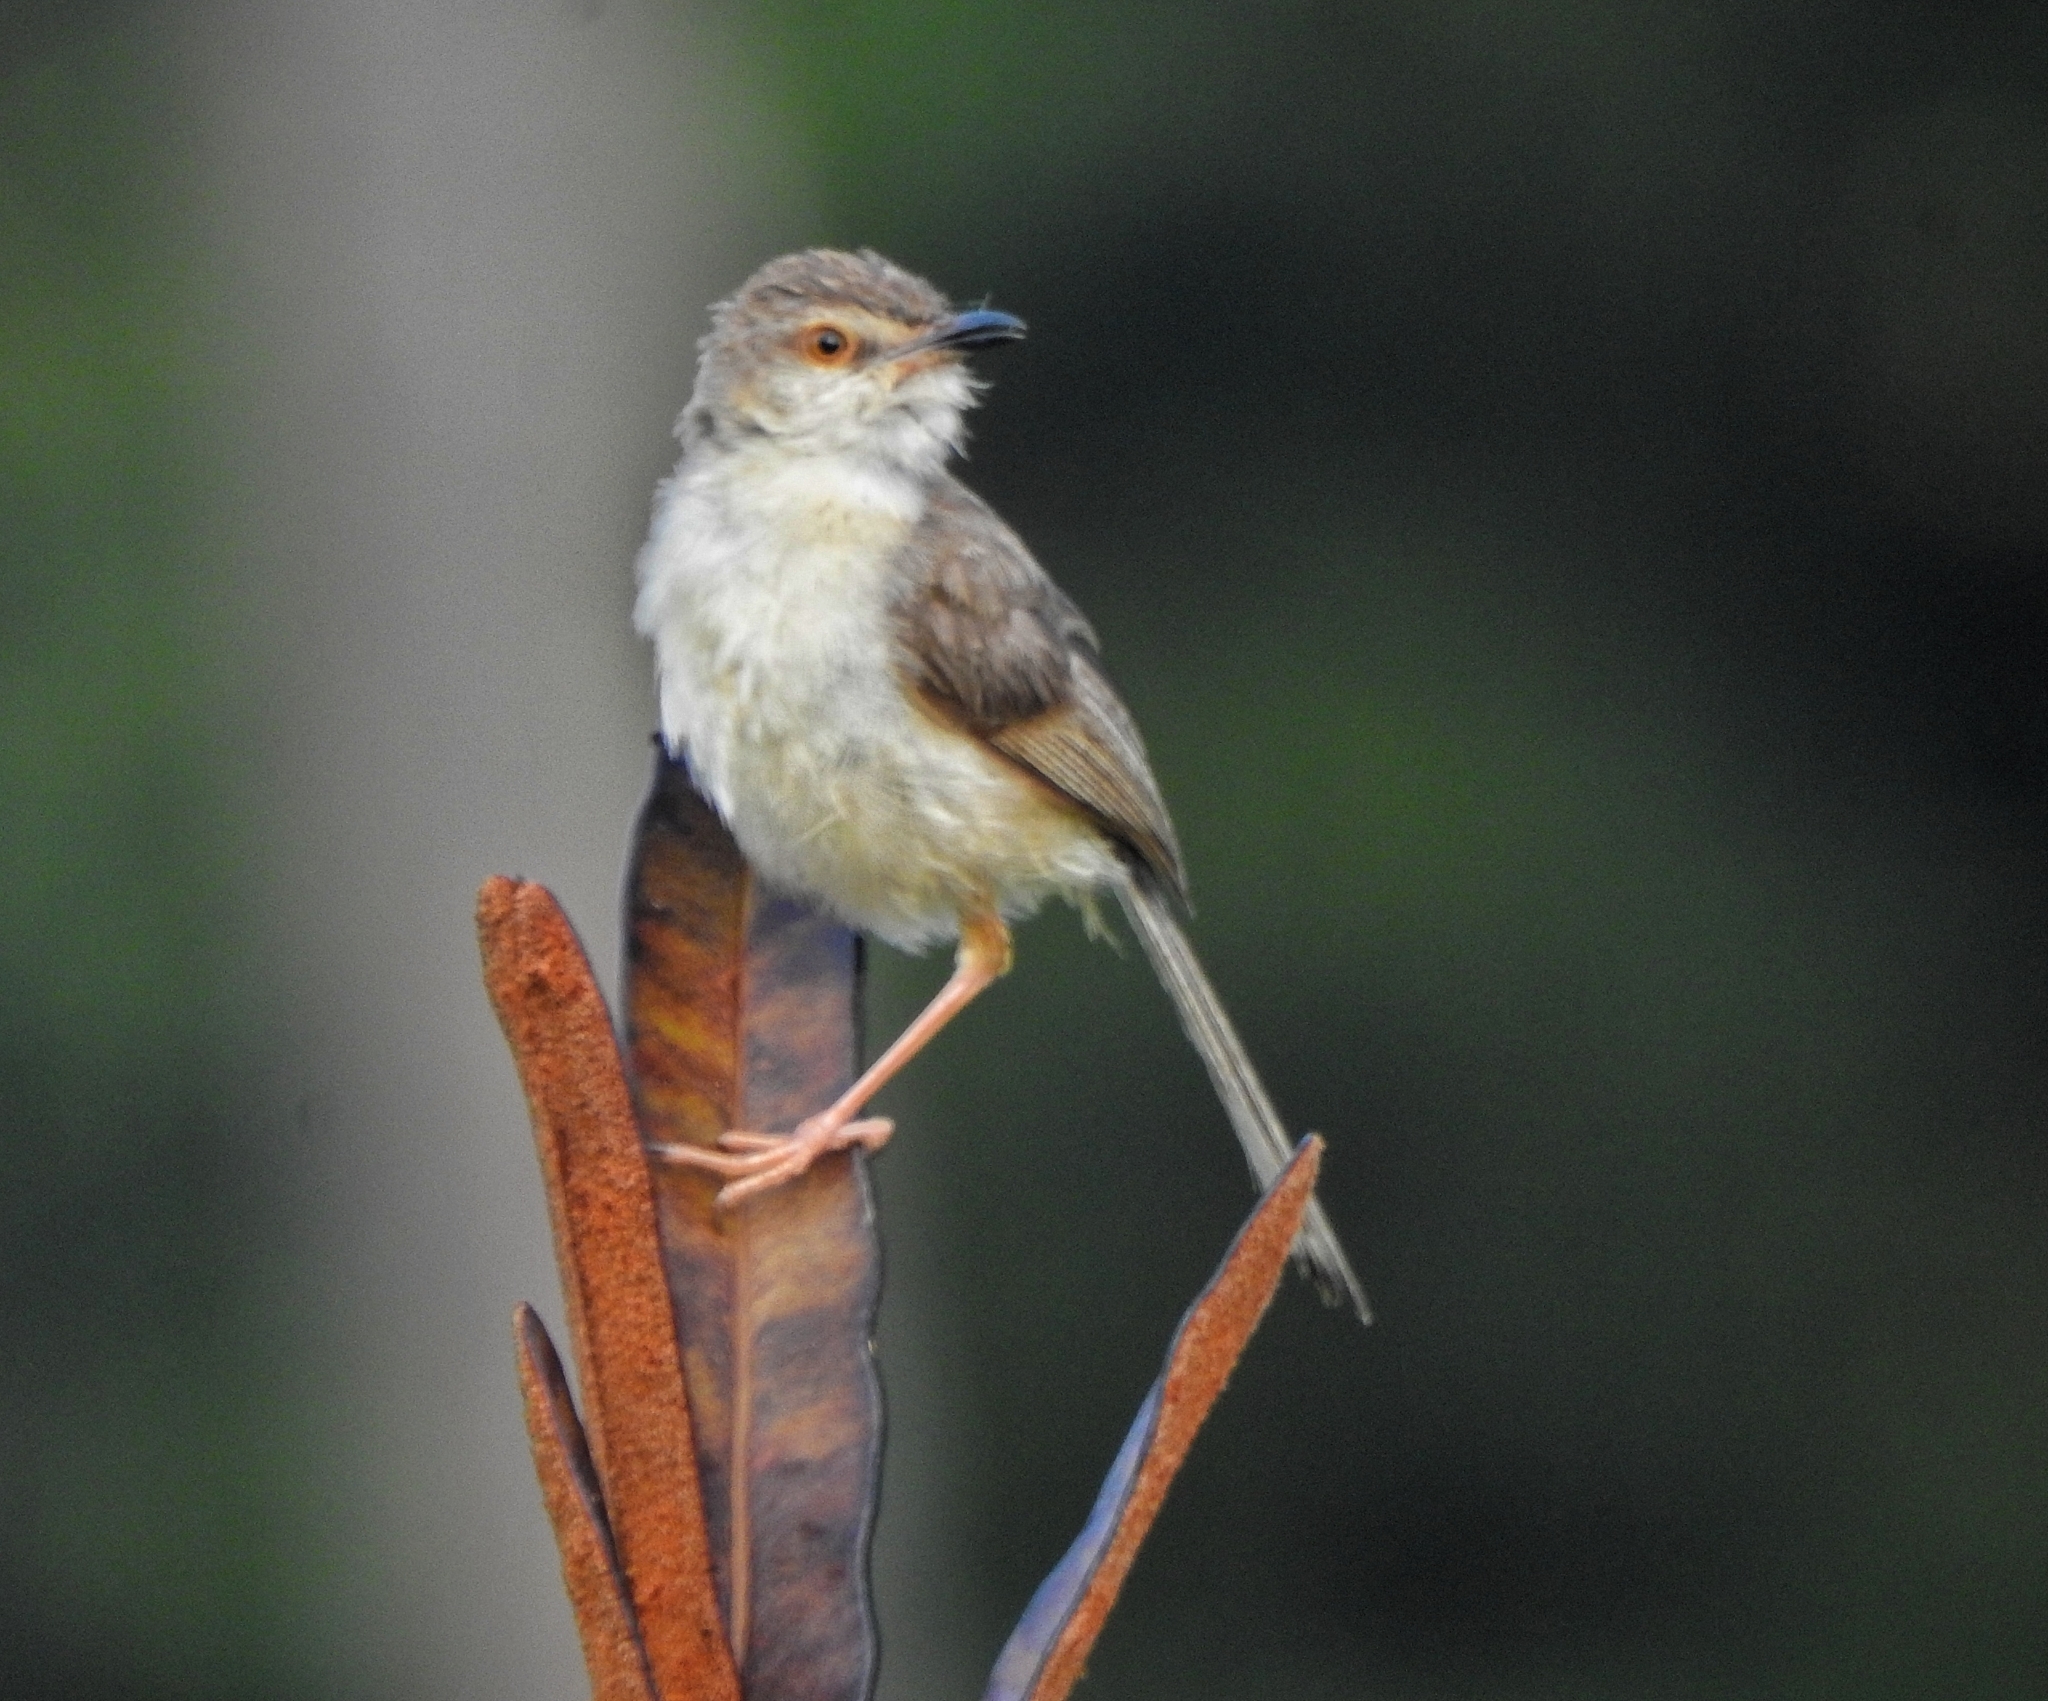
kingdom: Animalia
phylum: Chordata
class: Aves
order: Passeriformes
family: Cisticolidae
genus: Prinia
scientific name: Prinia inornata
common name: Plain prinia
